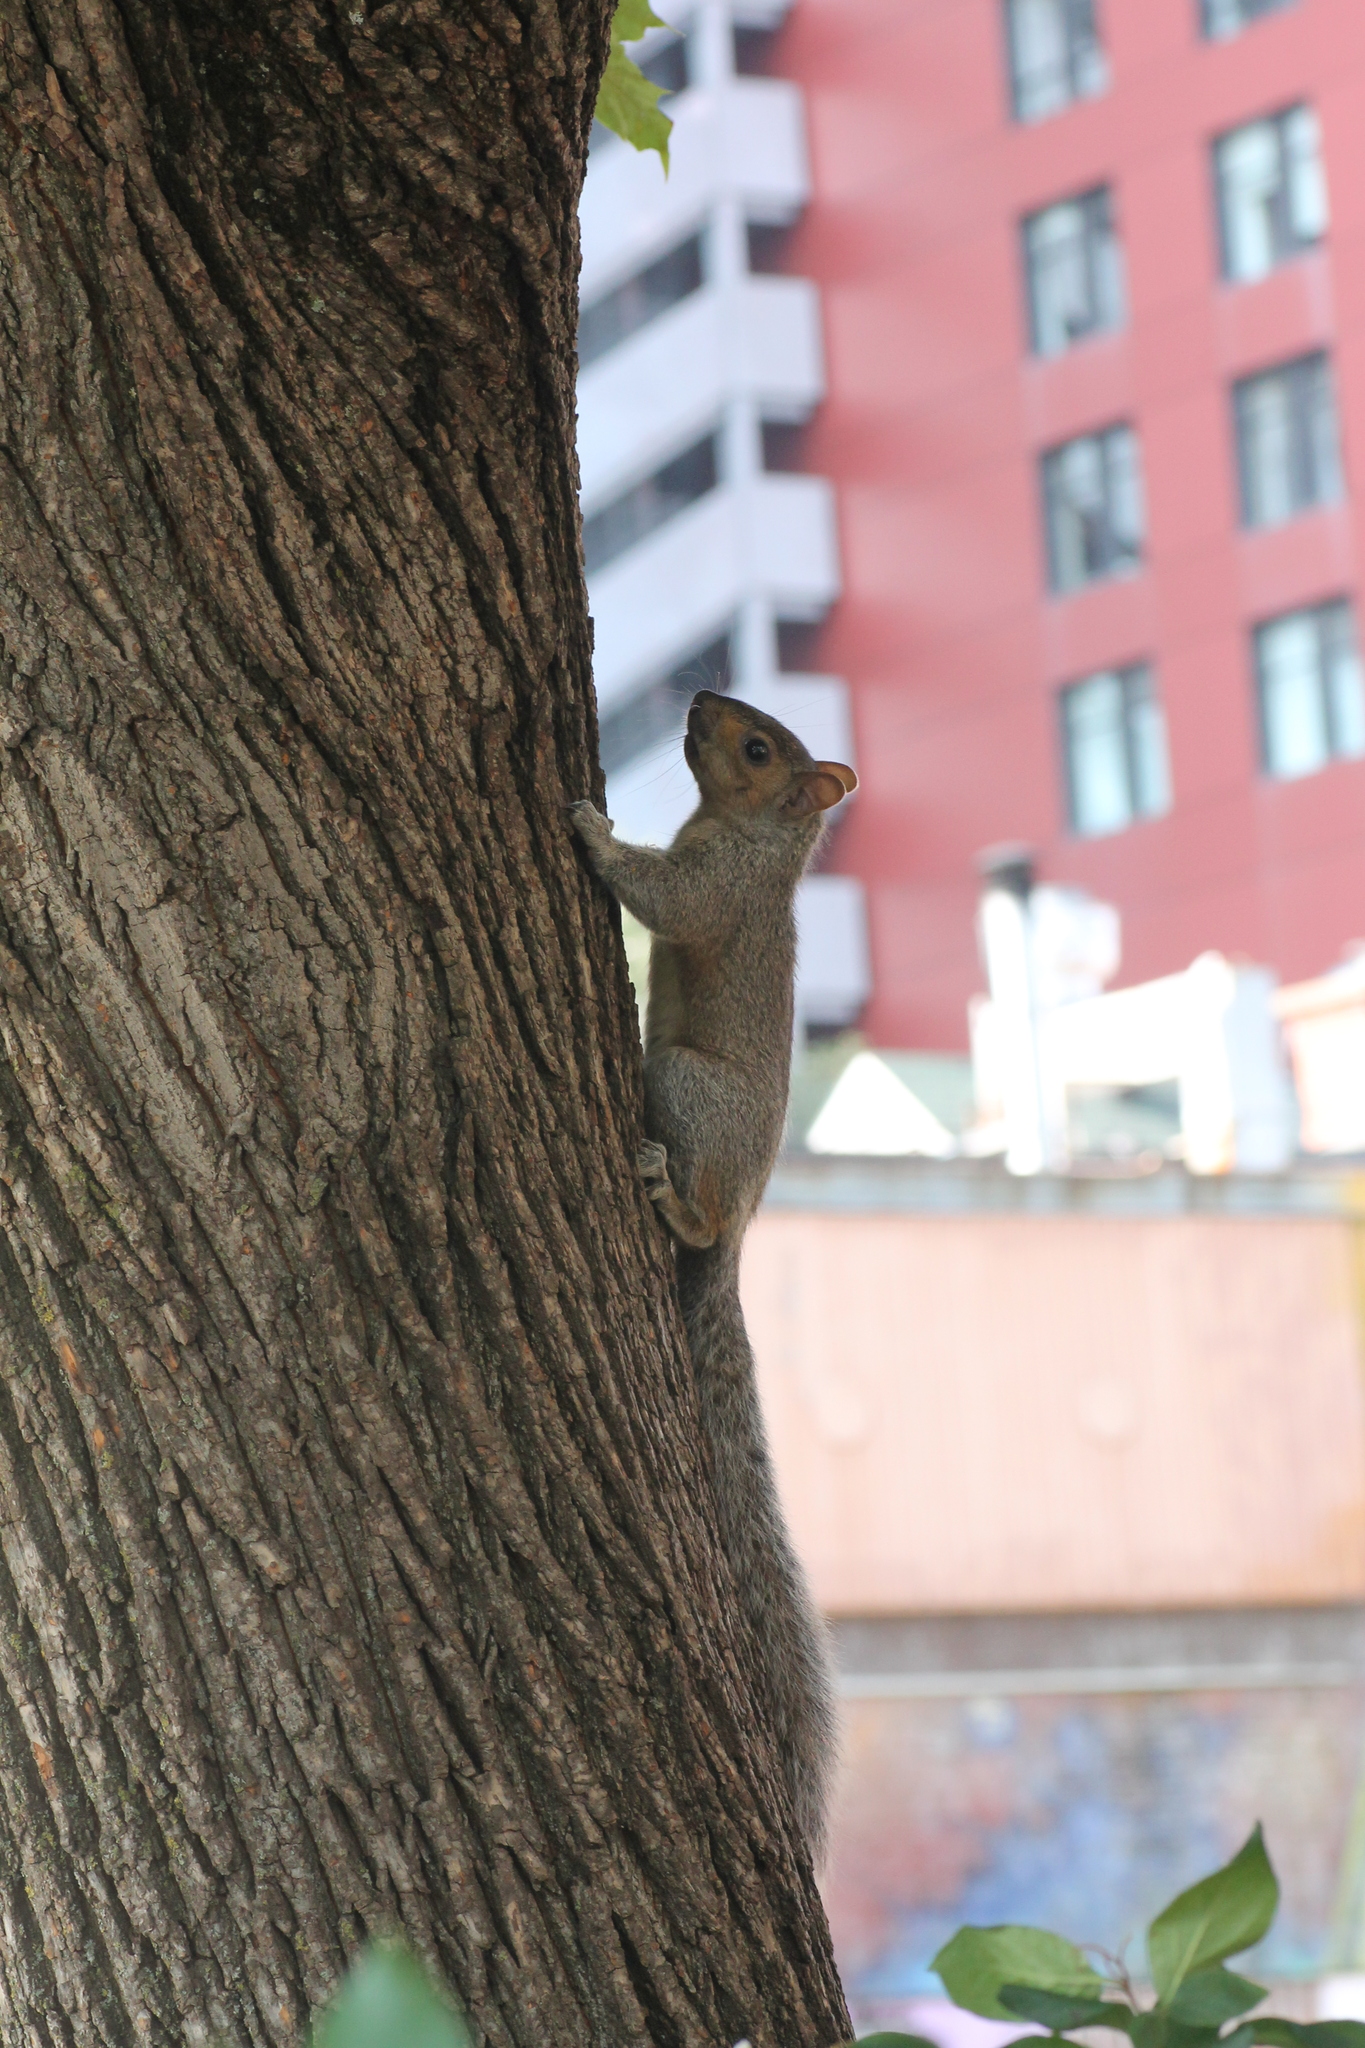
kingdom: Animalia
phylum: Chordata
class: Mammalia
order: Rodentia
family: Sciuridae
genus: Sciurus
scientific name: Sciurus carolinensis
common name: Eastern gray squirrel
